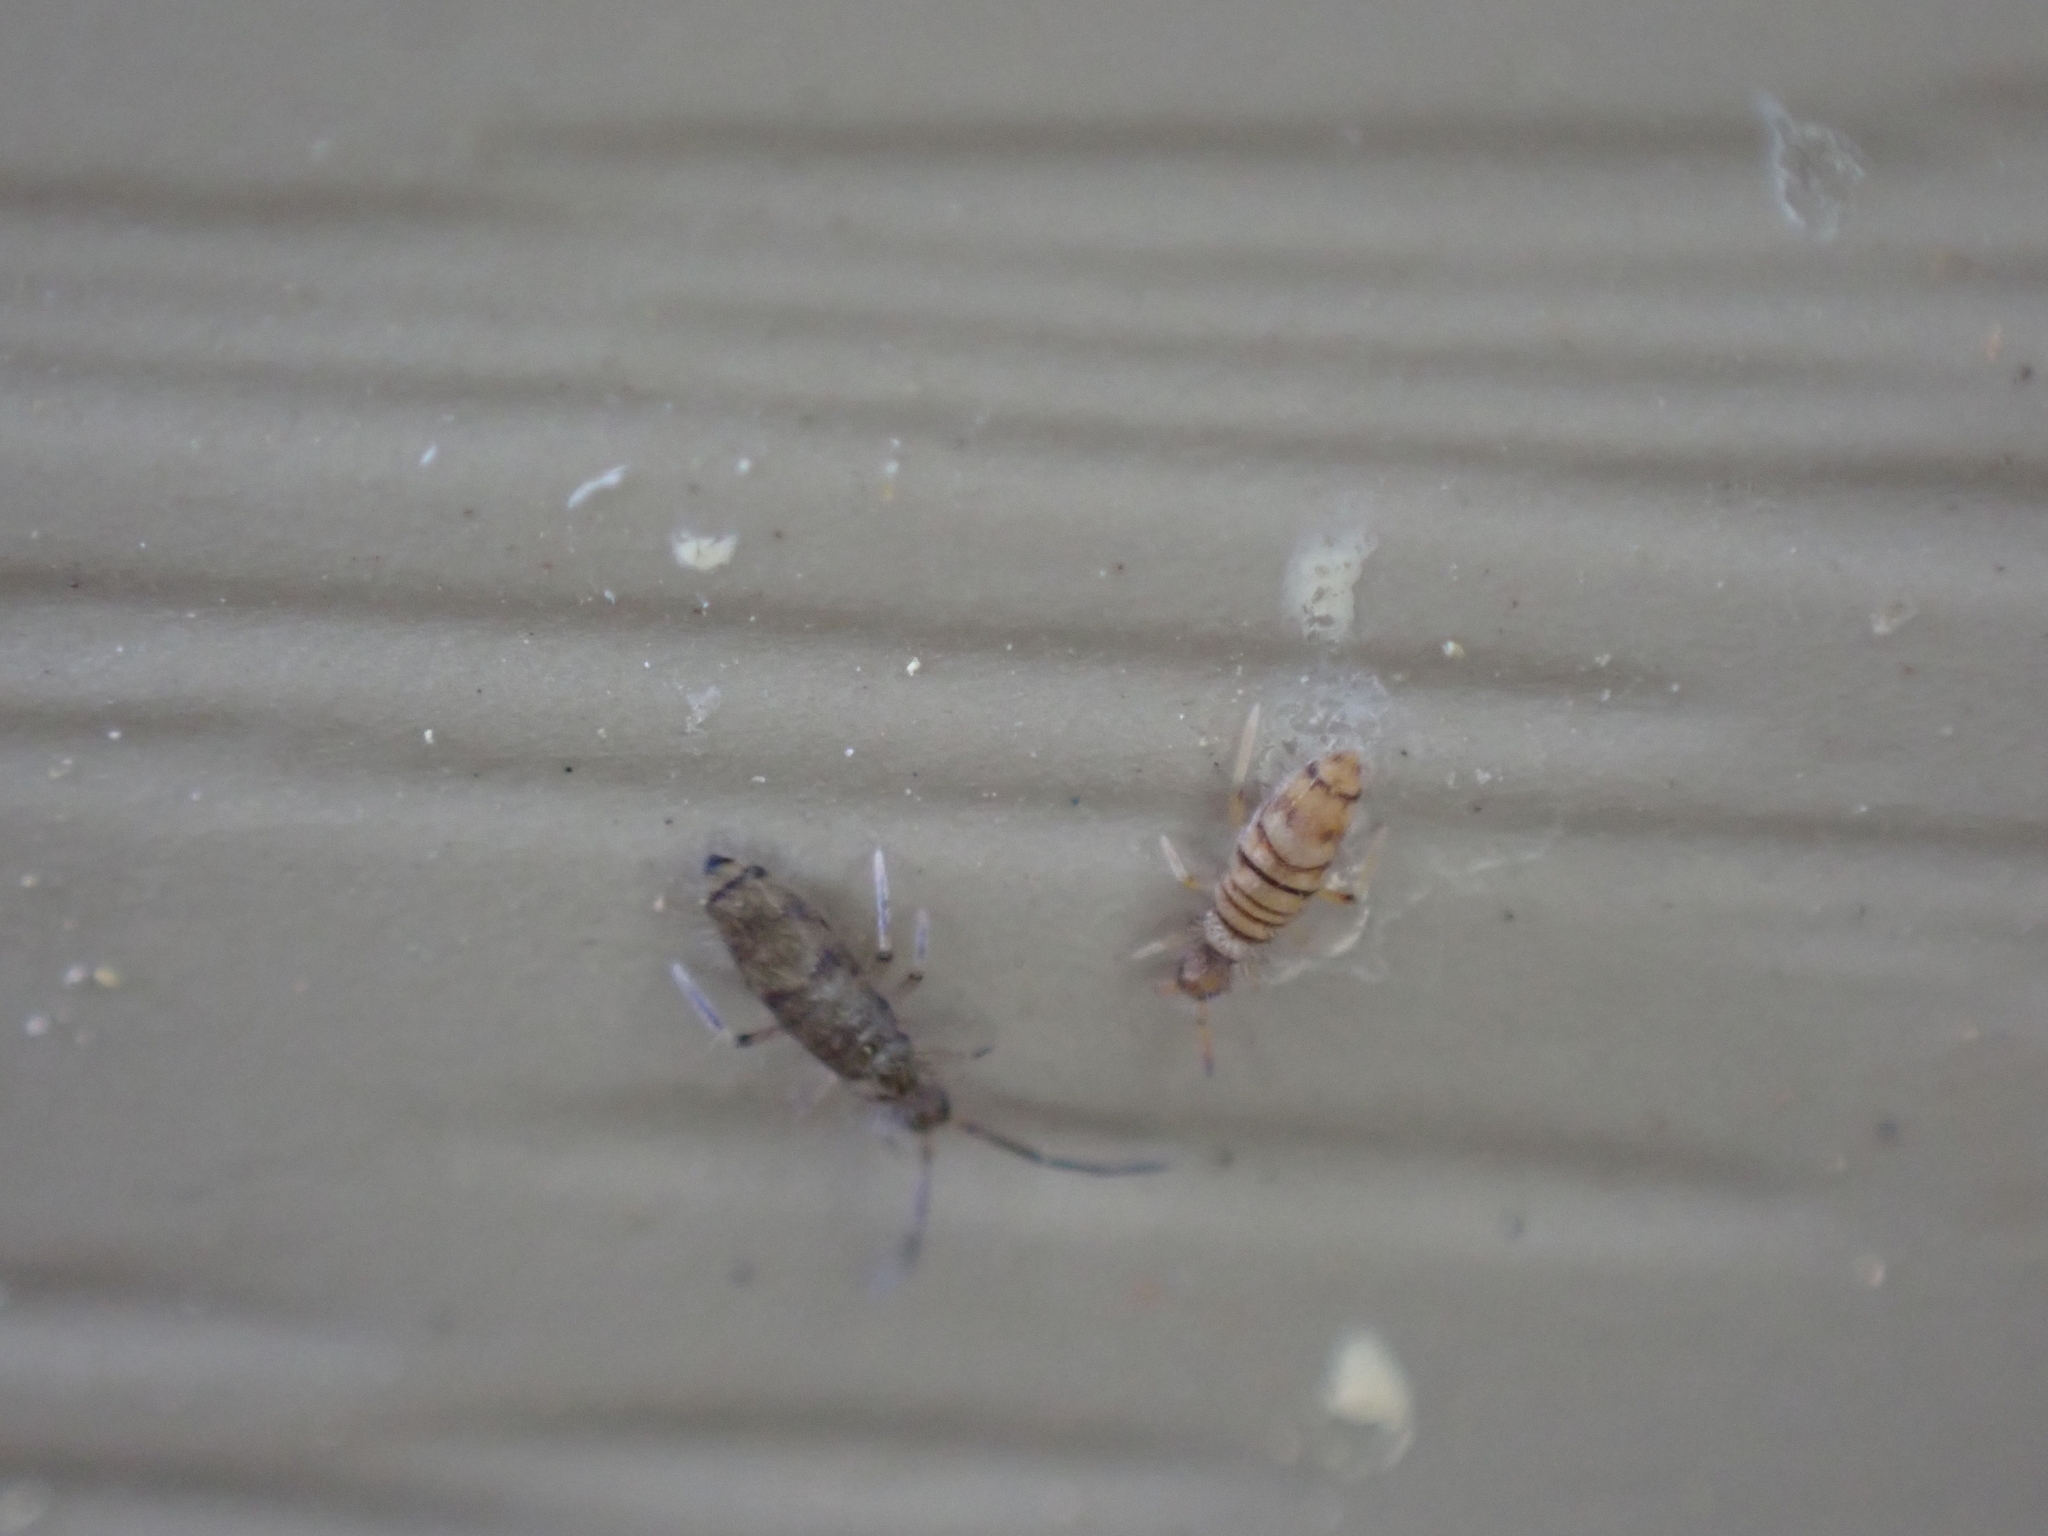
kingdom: Animalia
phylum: Arthropoda
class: Collembola
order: Entomobryomorpha
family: Entomobryidae
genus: Willowsia
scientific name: Willowsia nigromaculata
